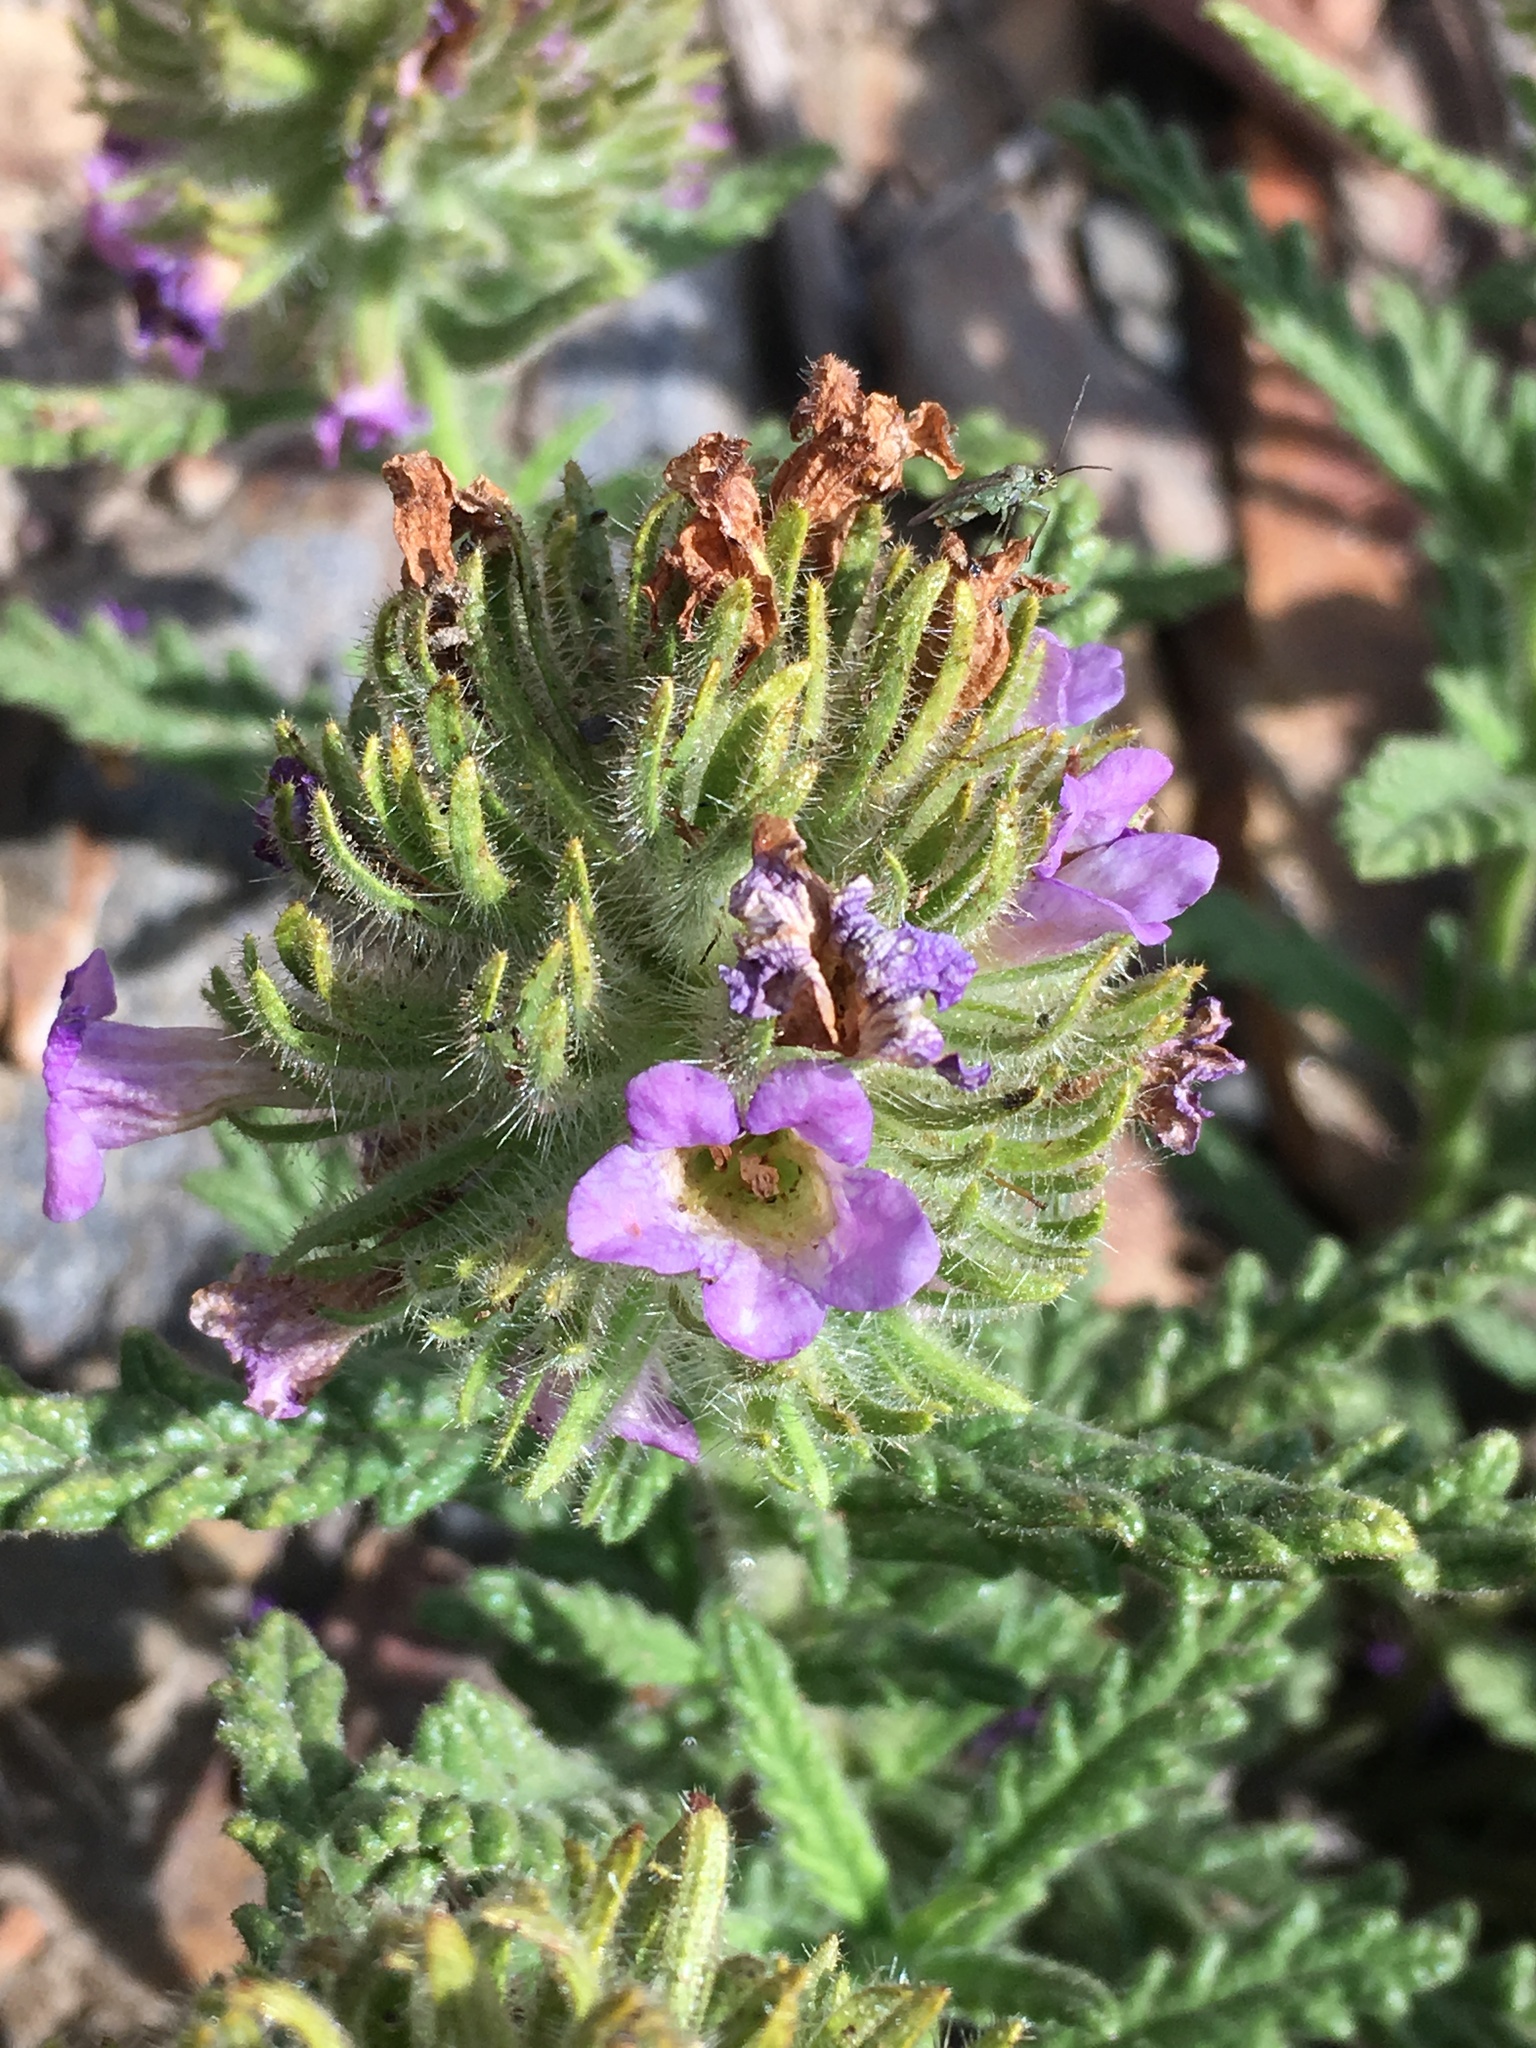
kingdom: Plantae
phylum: Tracheophyta
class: Magnoliopsida
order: Boraginales
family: Namaceae
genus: Nama
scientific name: Nama rothrockii
